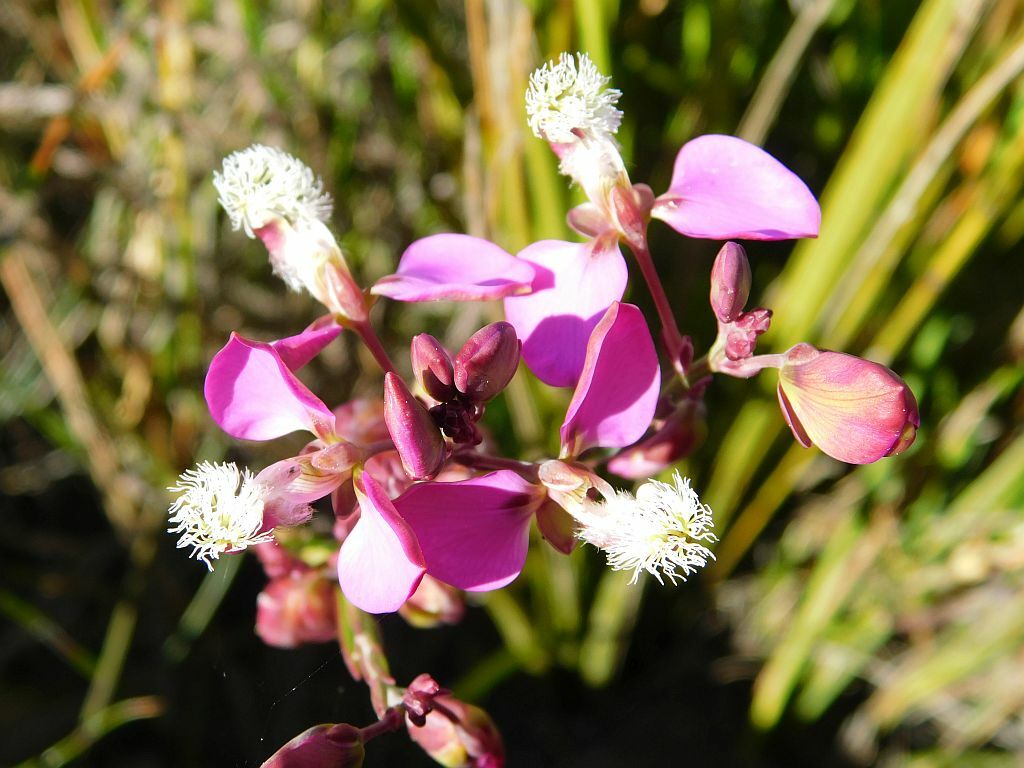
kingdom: Plantae
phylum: Tracheophyta
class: Magnoliopsida
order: Fabales
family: Polygalaceae
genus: Polygala
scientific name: Polygala bracteolata
